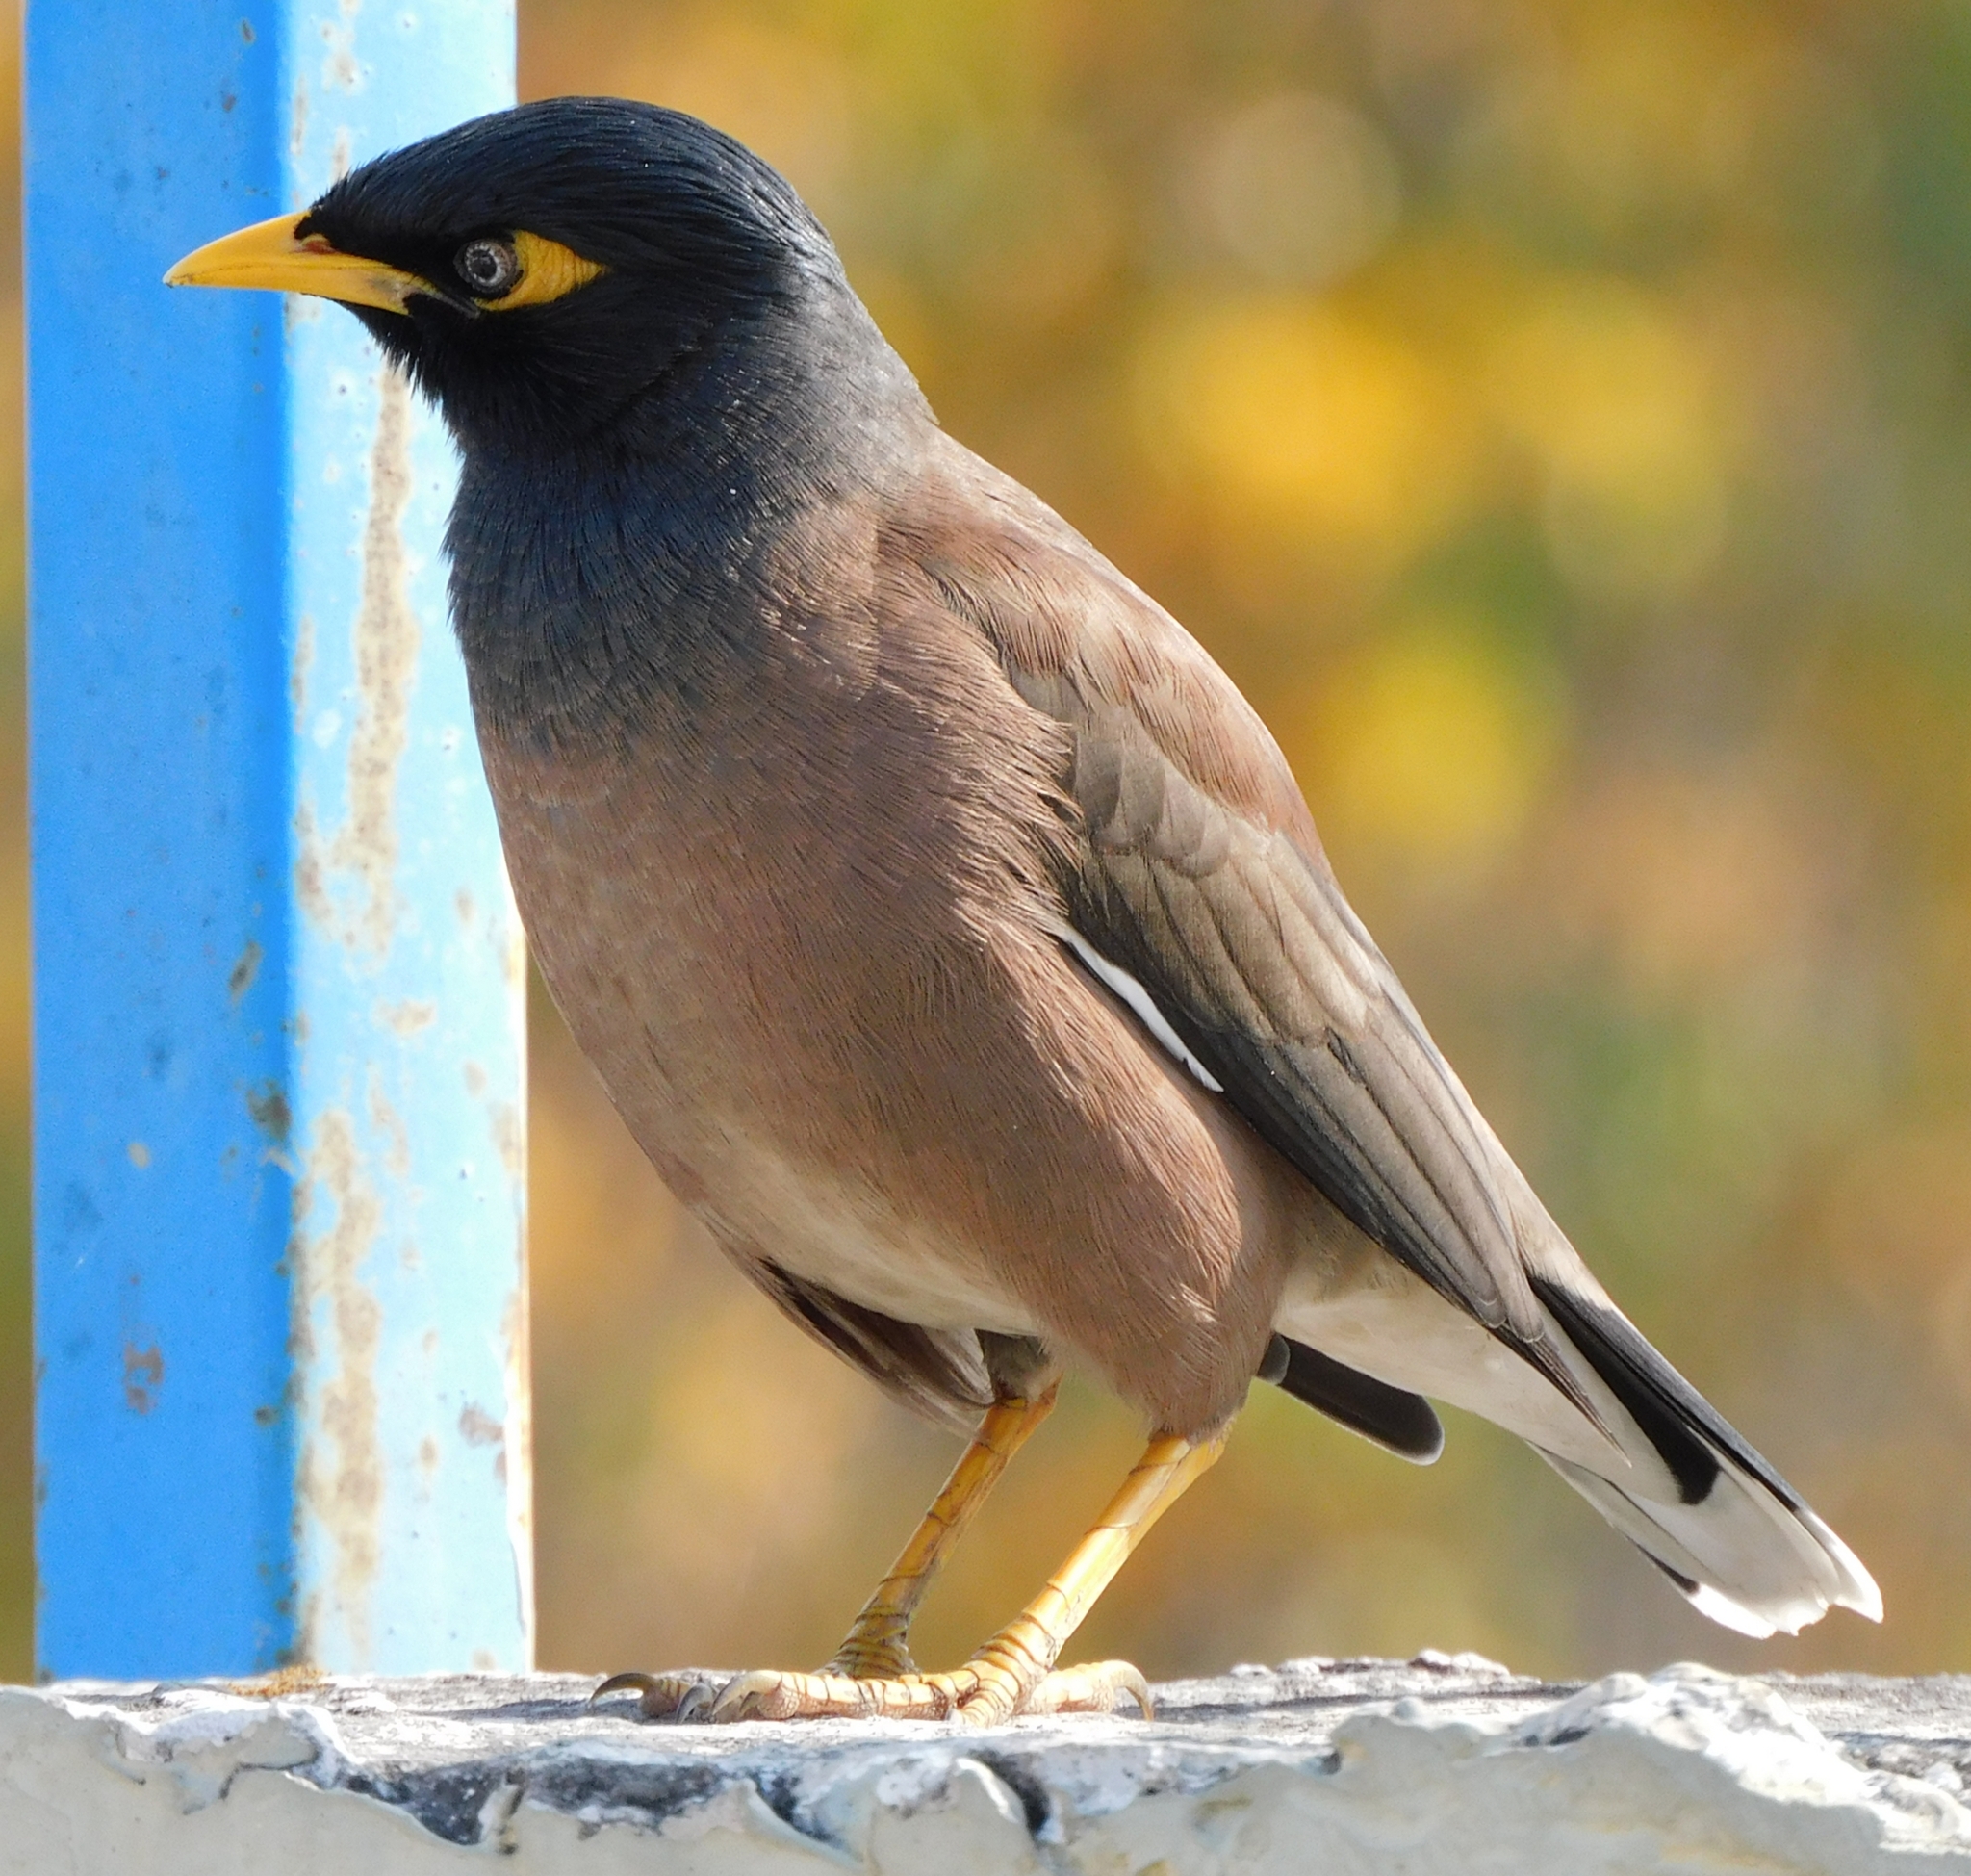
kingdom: Animalia
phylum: Chordata
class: Aves
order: Passeriformes
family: Sturnidae
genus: Acridotheres
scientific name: Acridotheres tristis
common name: Common myna
